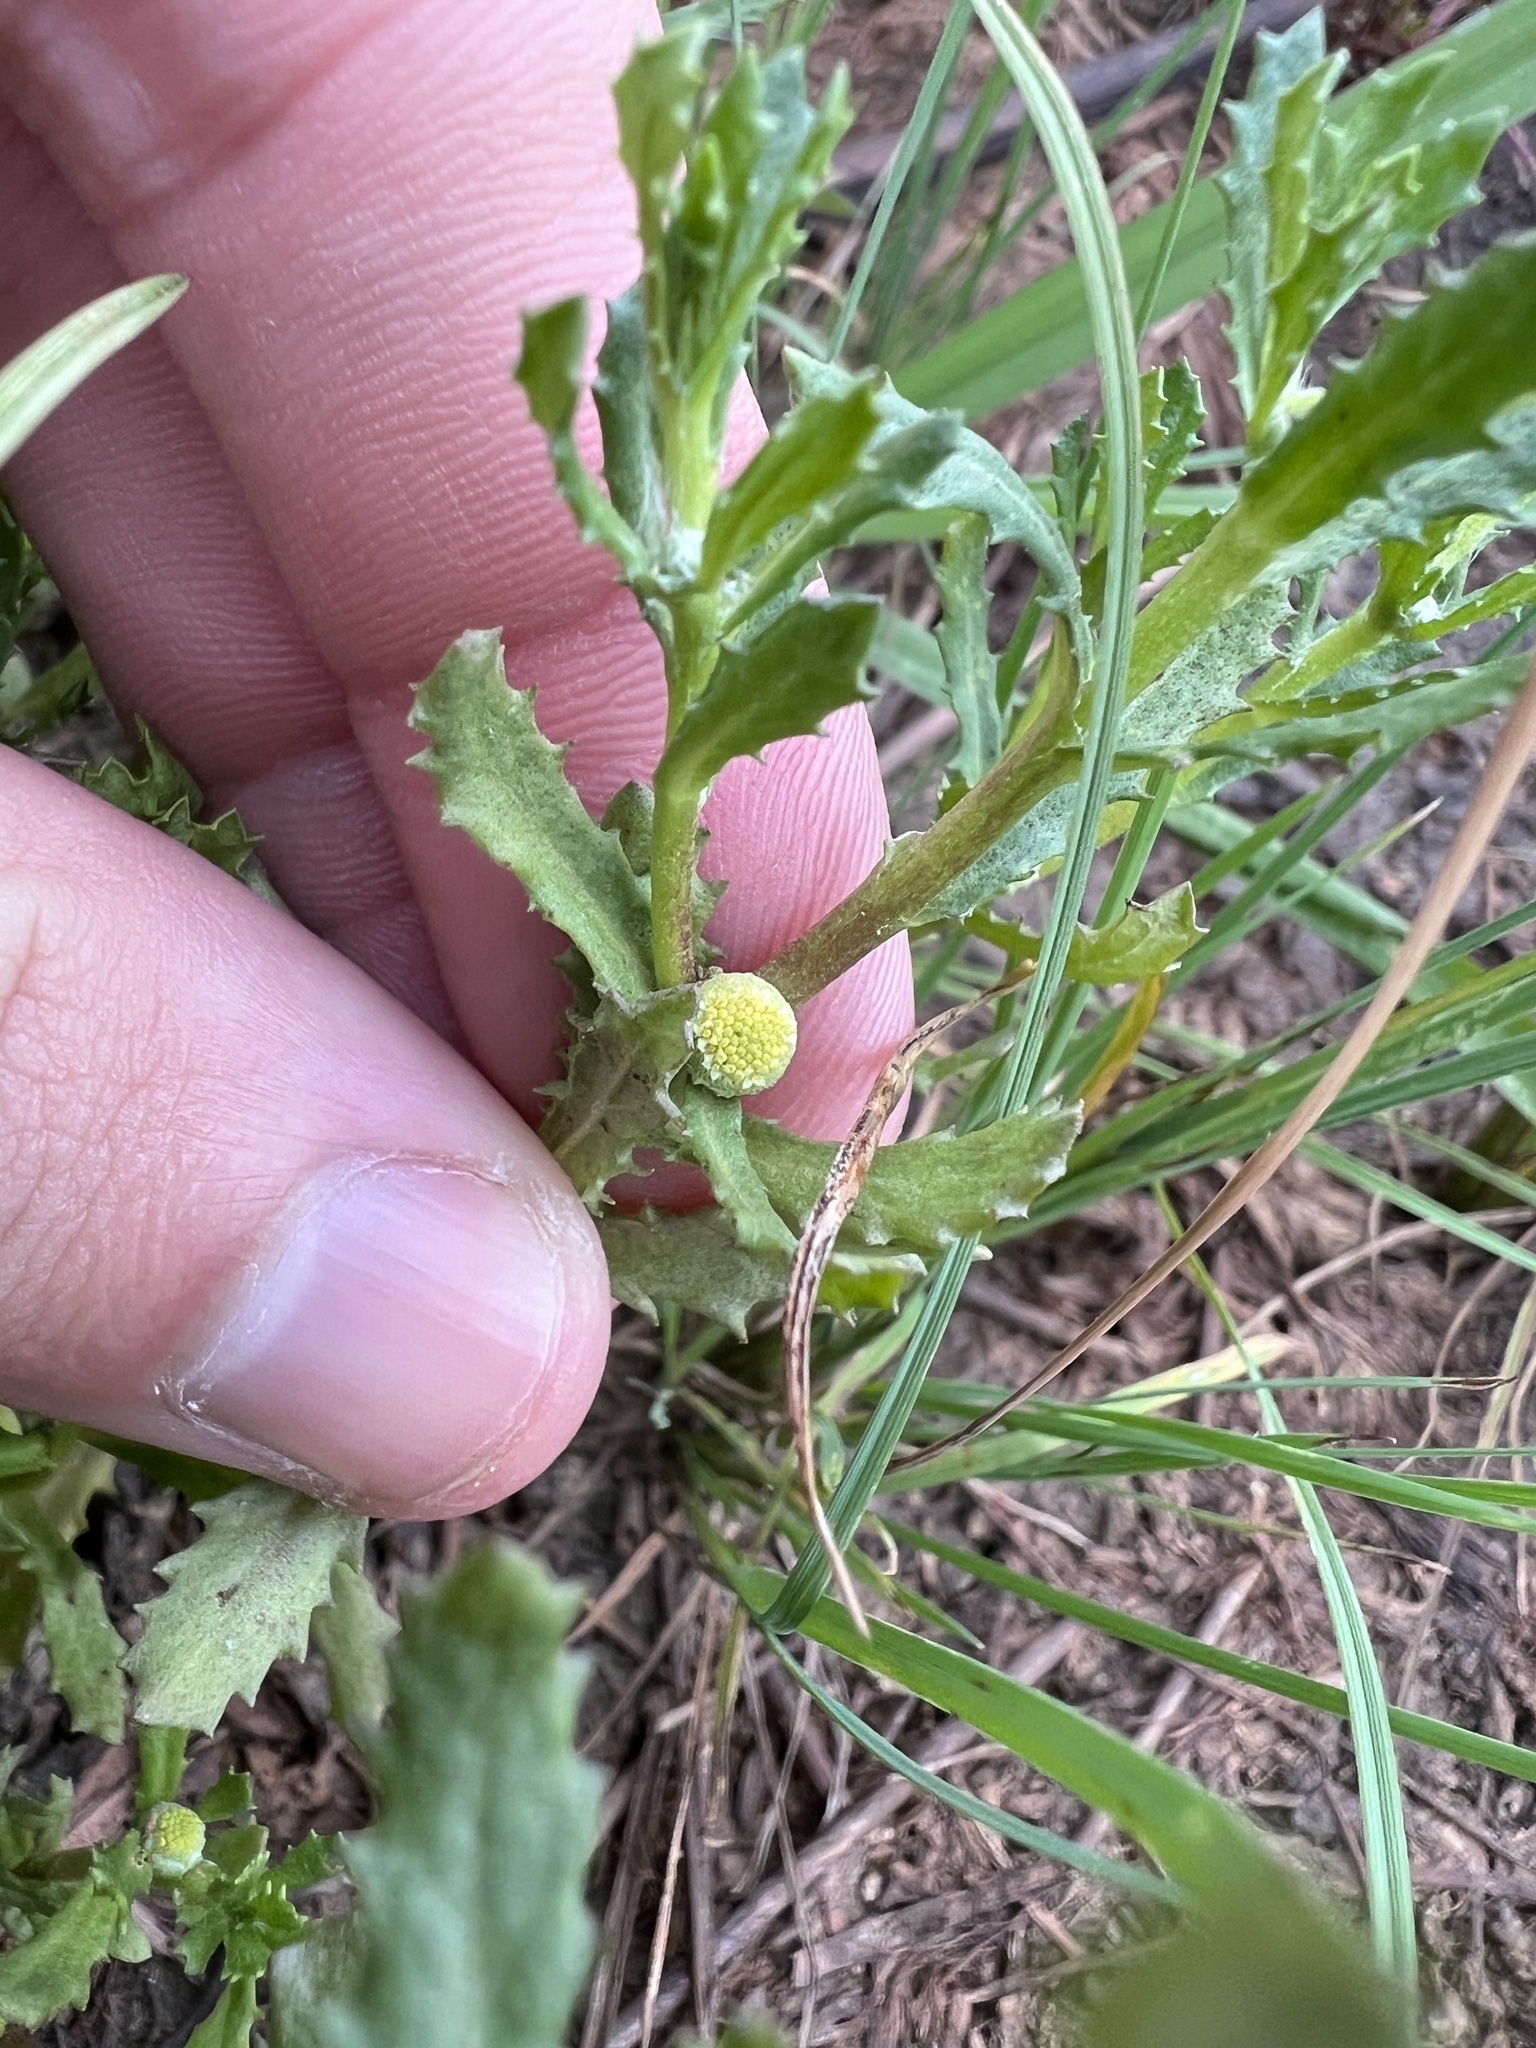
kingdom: Plantae
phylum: Tracheophyta
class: Magnoliopsida
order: Asterales
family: Asteraceae
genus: Centipeda
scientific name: Centipeda cunninghamii
